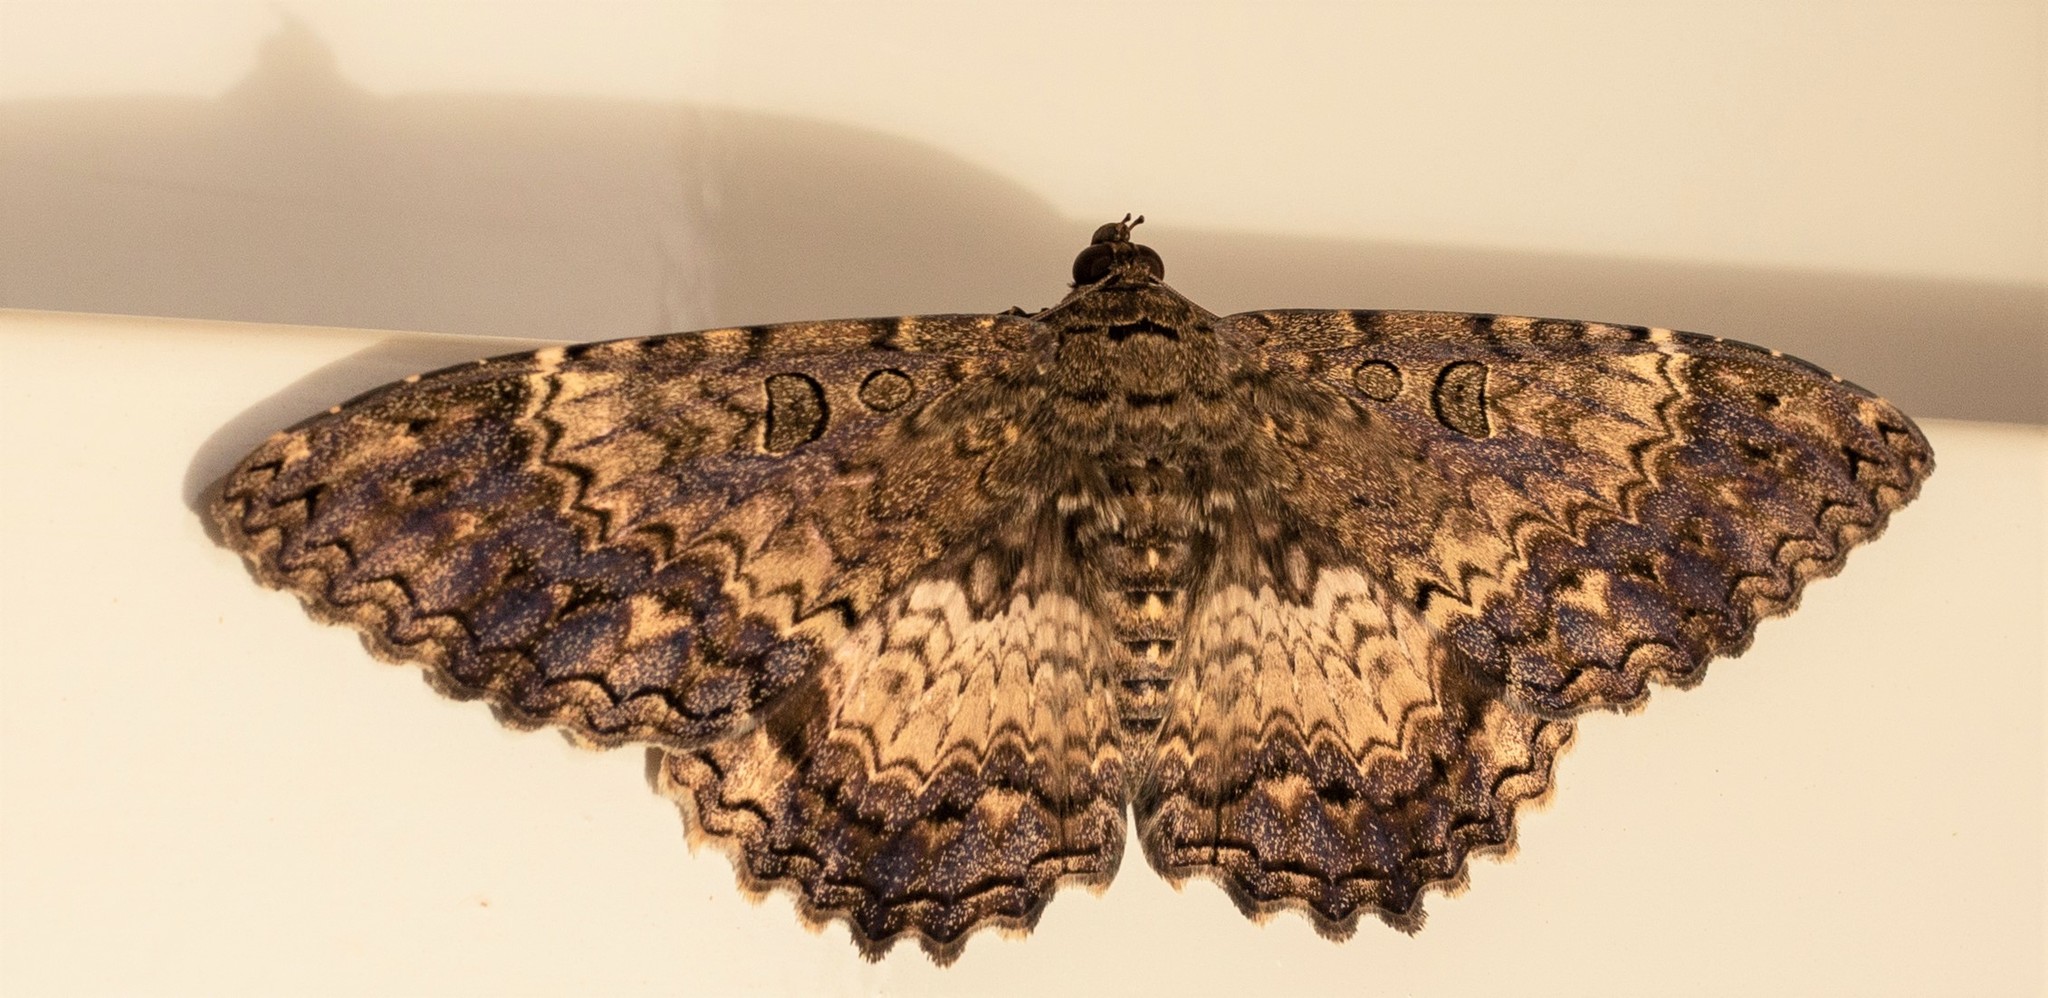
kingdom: Animalia
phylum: Arthropoda
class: Insecta
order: Lepidoptera
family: Erebidae
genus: Feigeria
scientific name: Feigeria scops
